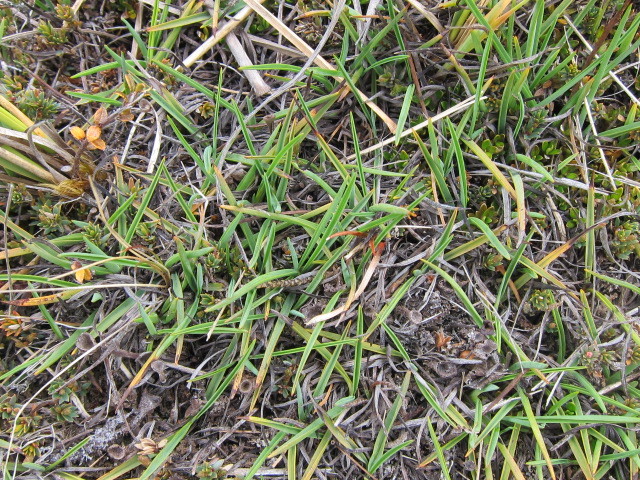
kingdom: Plantae
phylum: Tracheophyta
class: Liliopsida
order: Asparagales
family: Asphodelaceae
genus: Herpolirion
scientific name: Herpolirion novae-zelandiae
